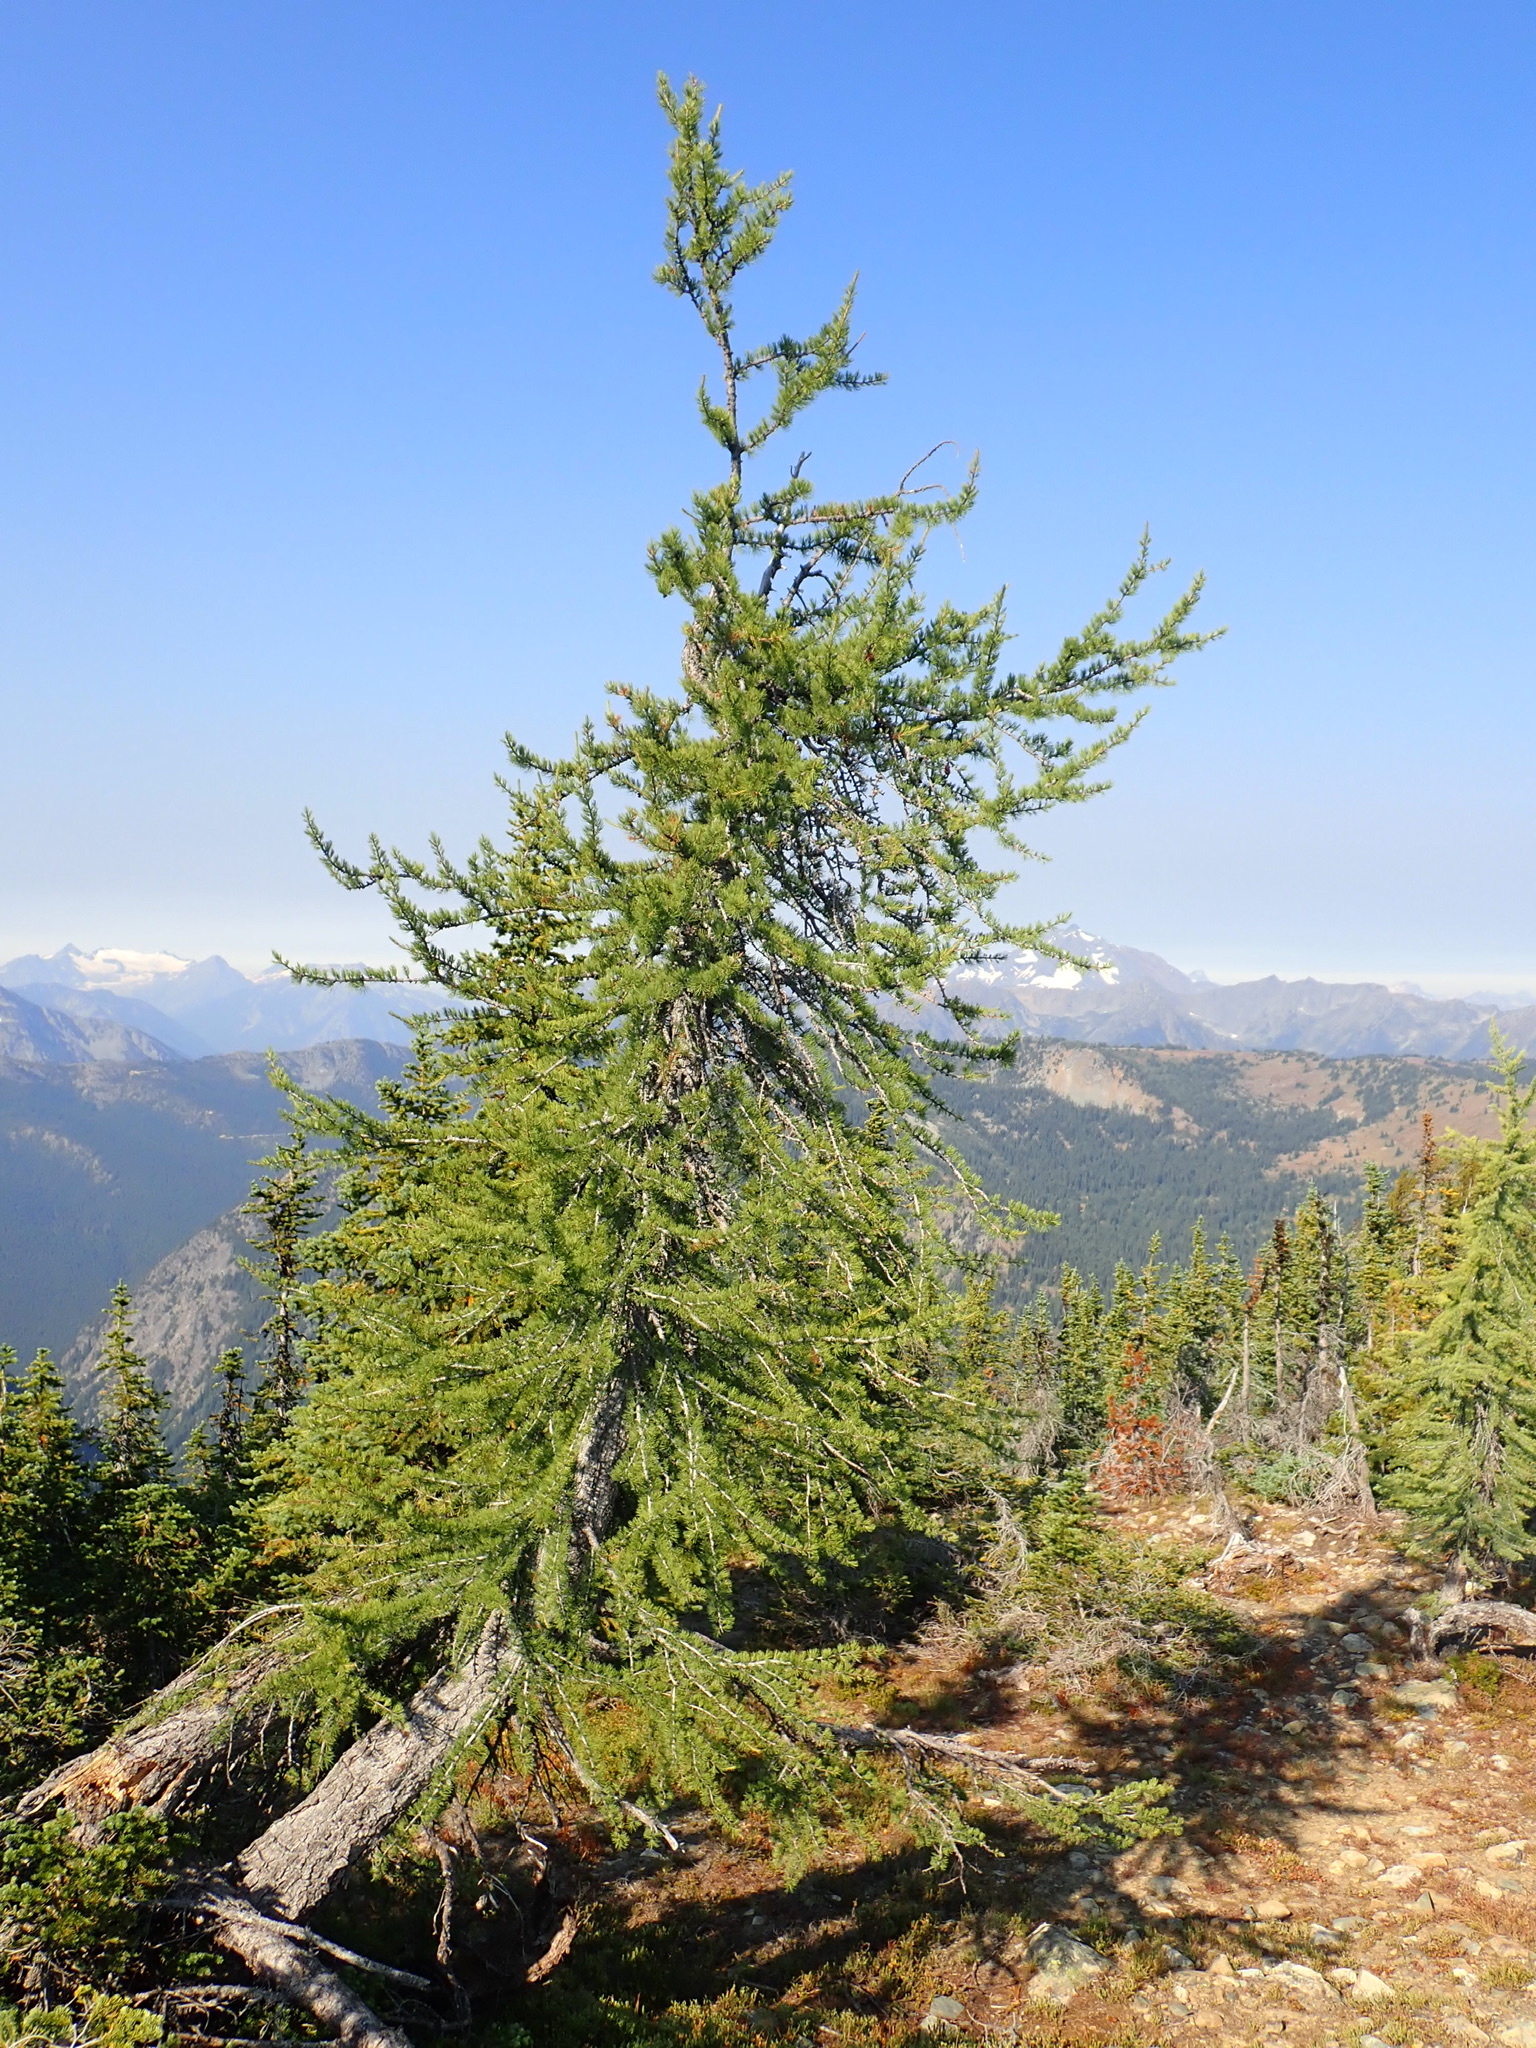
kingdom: Plantae
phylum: Tracheophyta
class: Pinopsida
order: Pinales
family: Pinaceae
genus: Larix
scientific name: Larix lyallii
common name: Alpine larch
